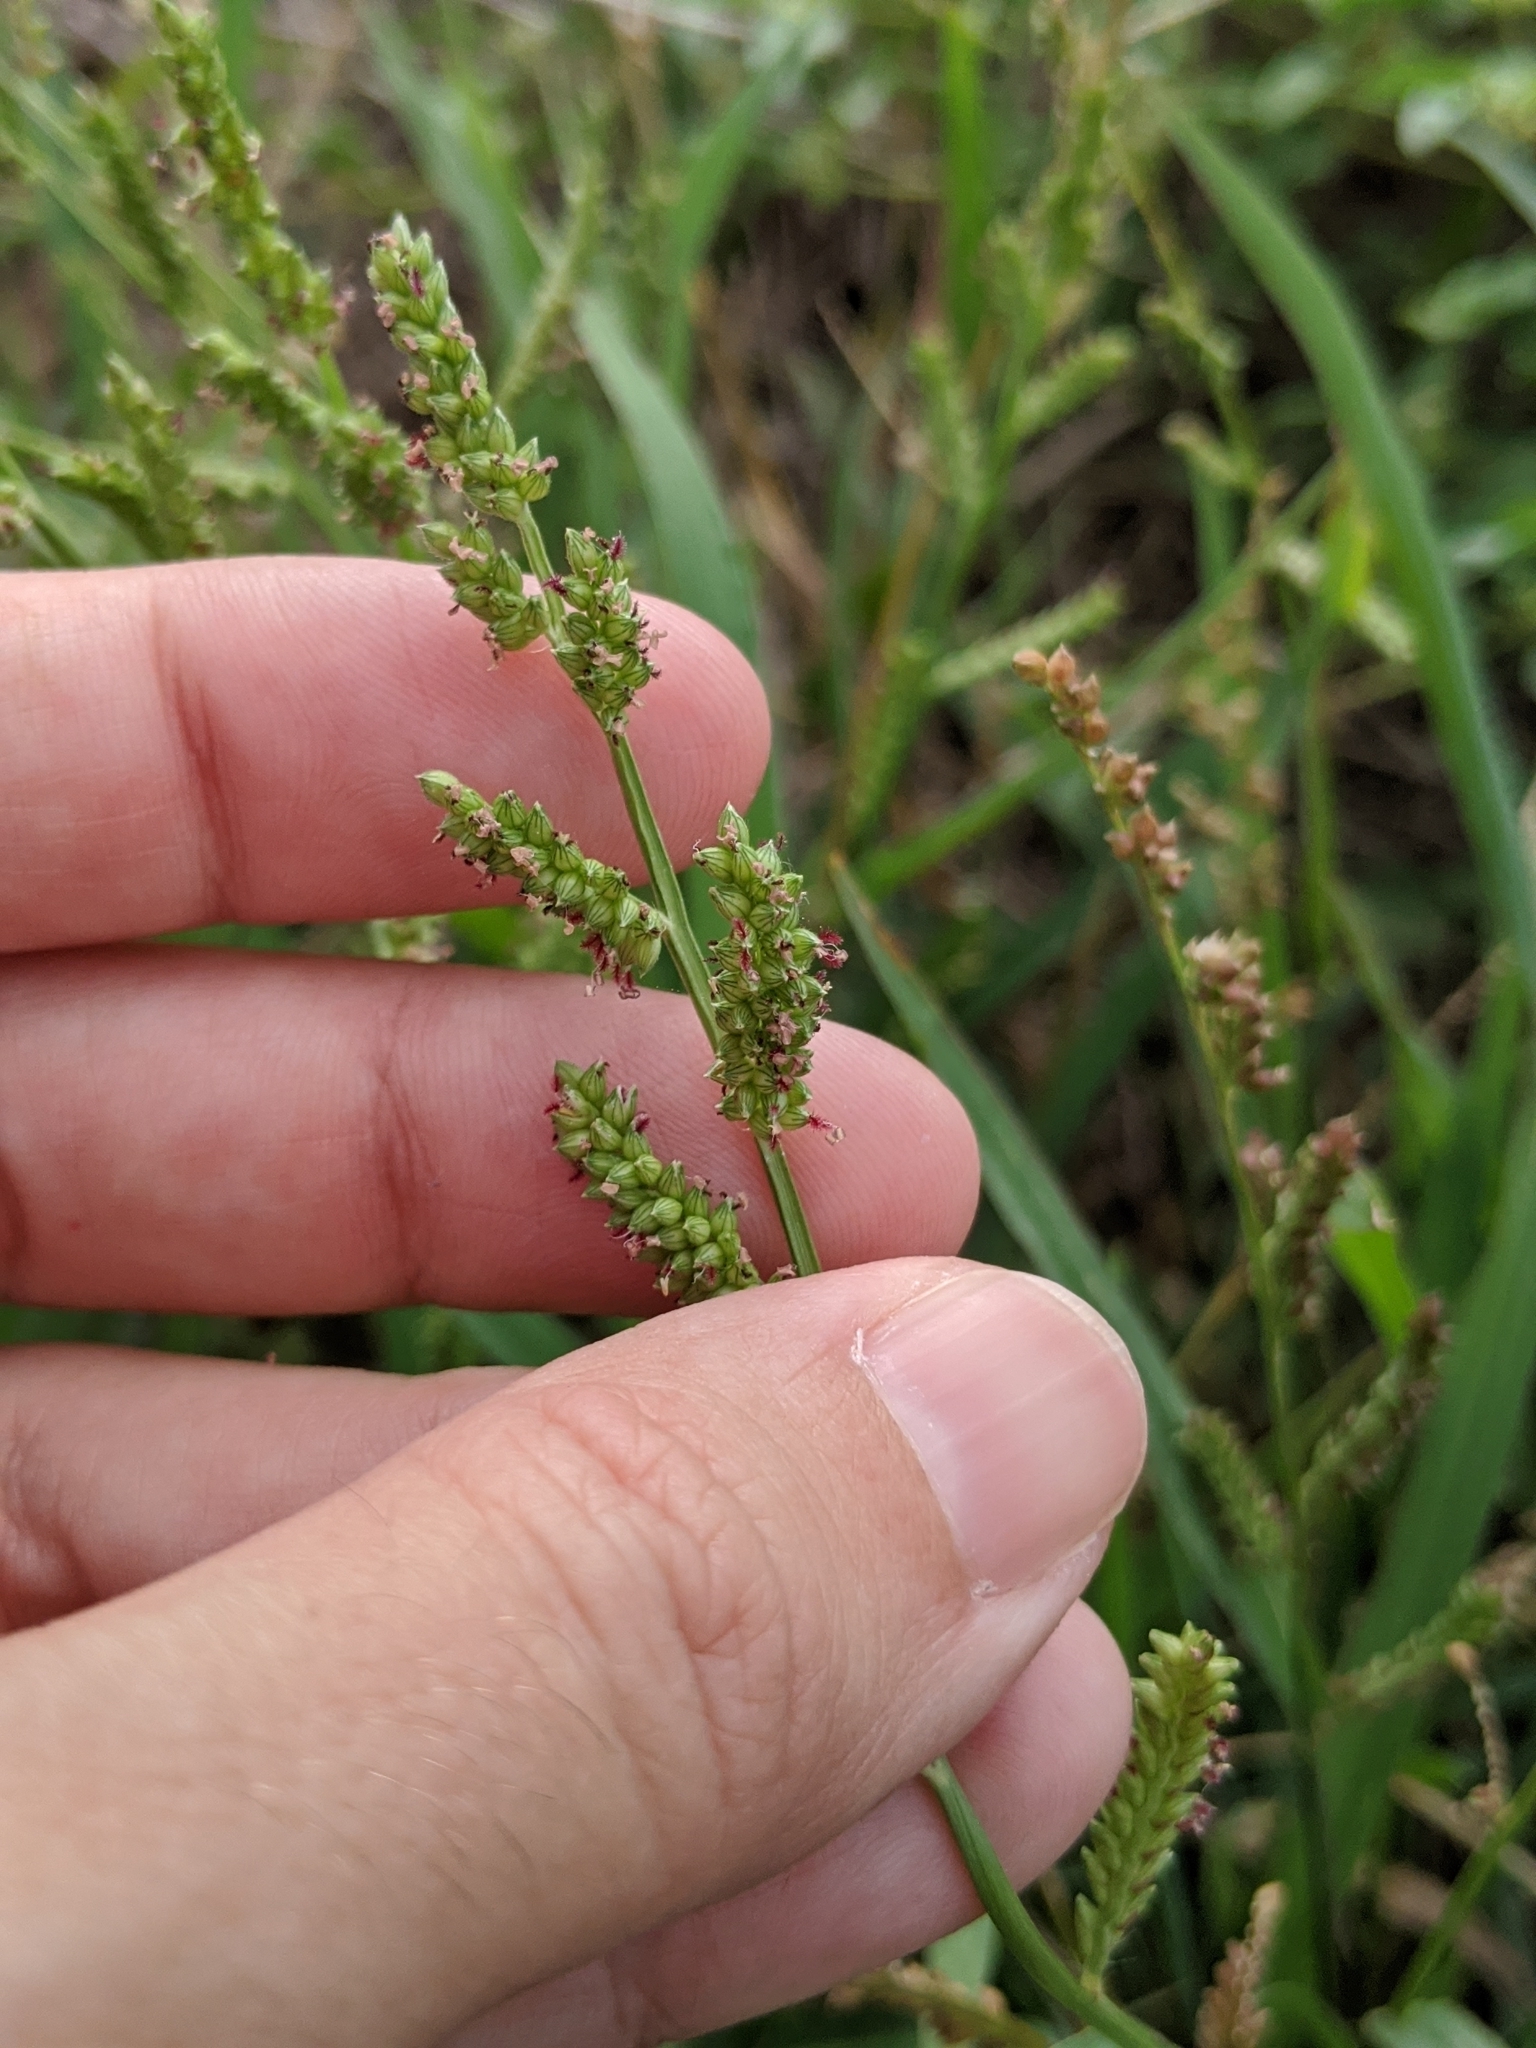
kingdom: Plantae
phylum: Tracheophyta
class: Liliopsida
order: Poales
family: Poaceae
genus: Echinochloa
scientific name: Echinochloa colonum
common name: Jungle rice
